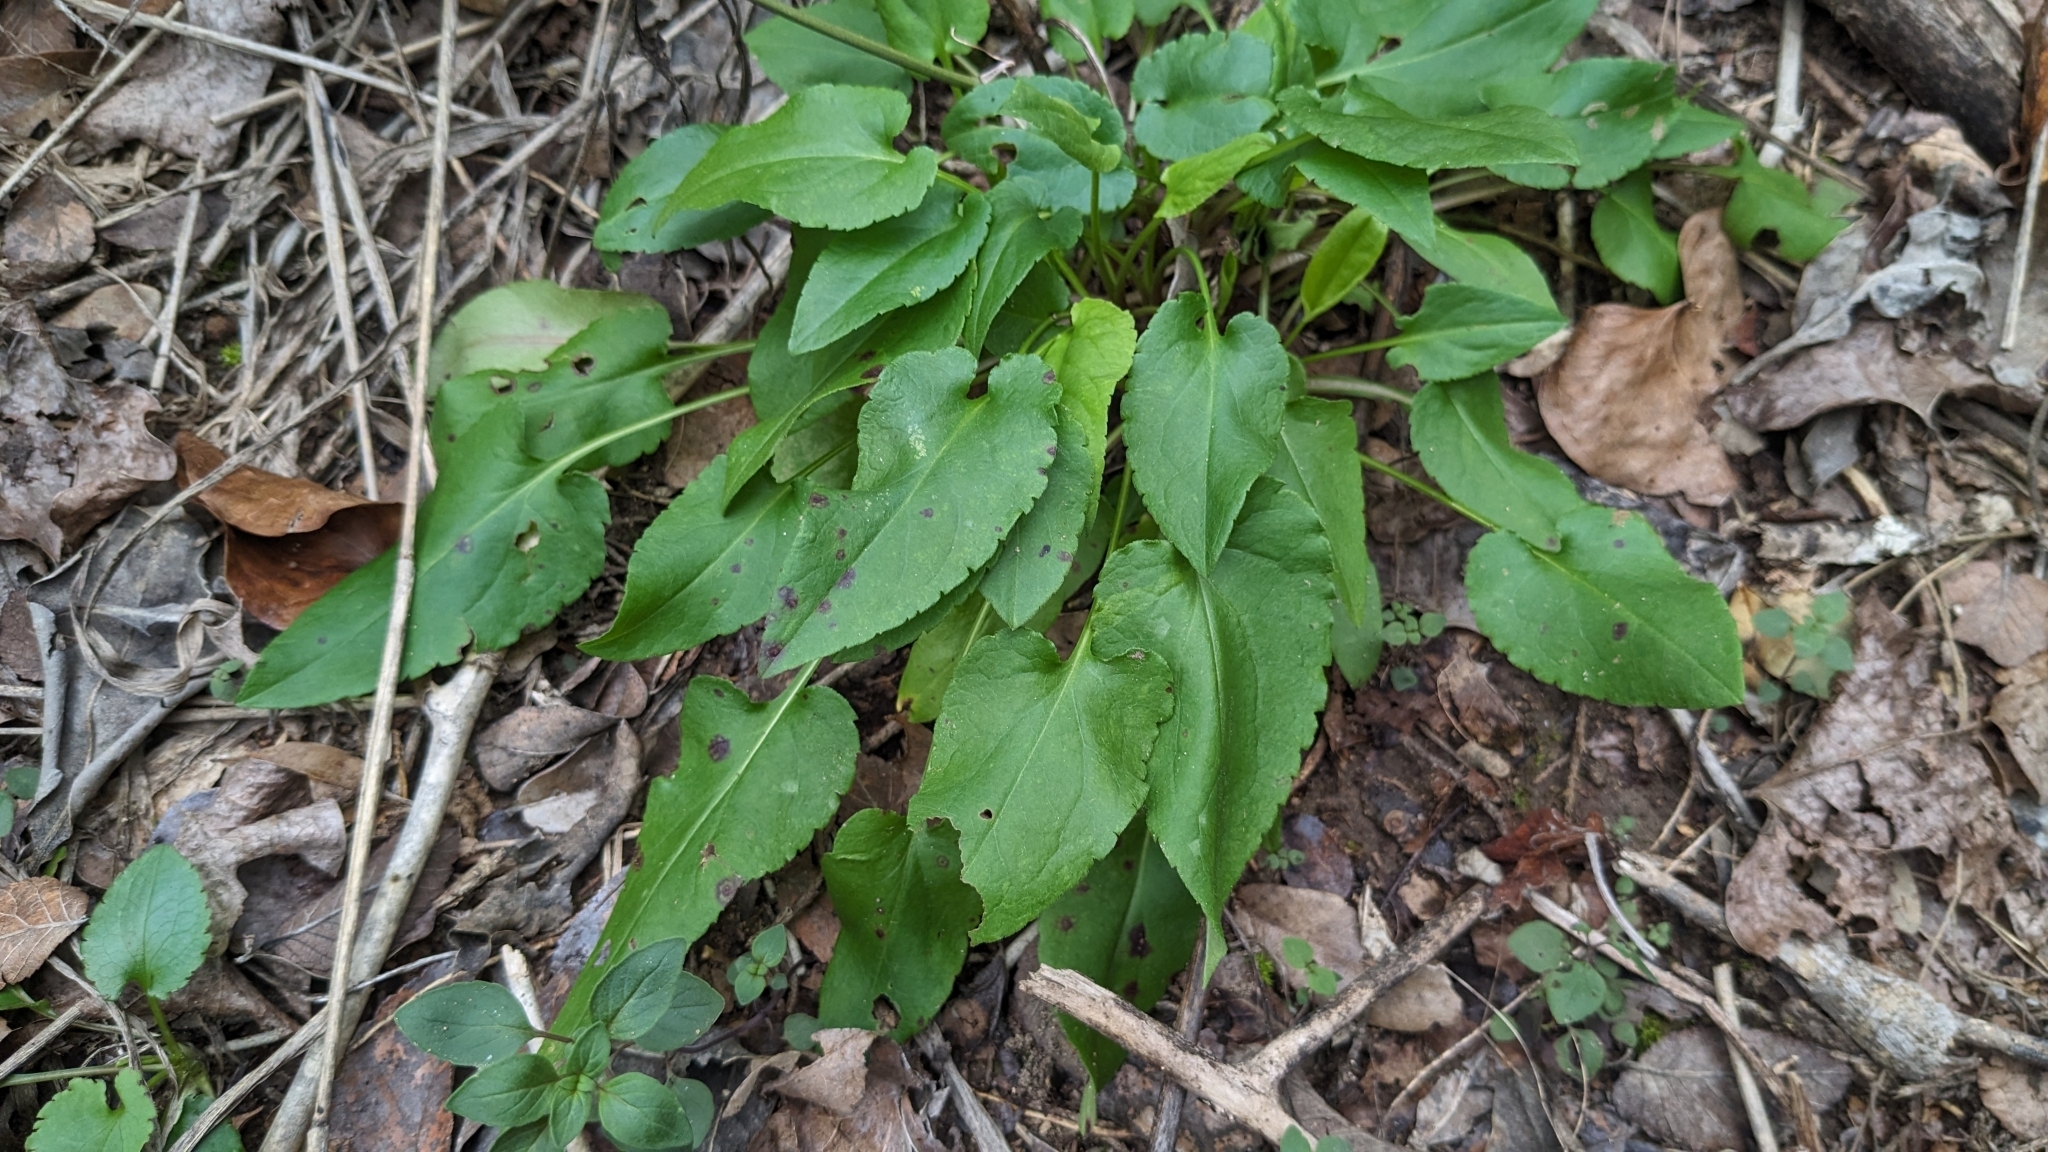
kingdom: Plantae
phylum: Tracheophyta
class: Magnoliopsida
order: Asterales
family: Asteraceae
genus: Symphyotrichum
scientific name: Symphyotrichum drummondii
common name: Drummond's aster
